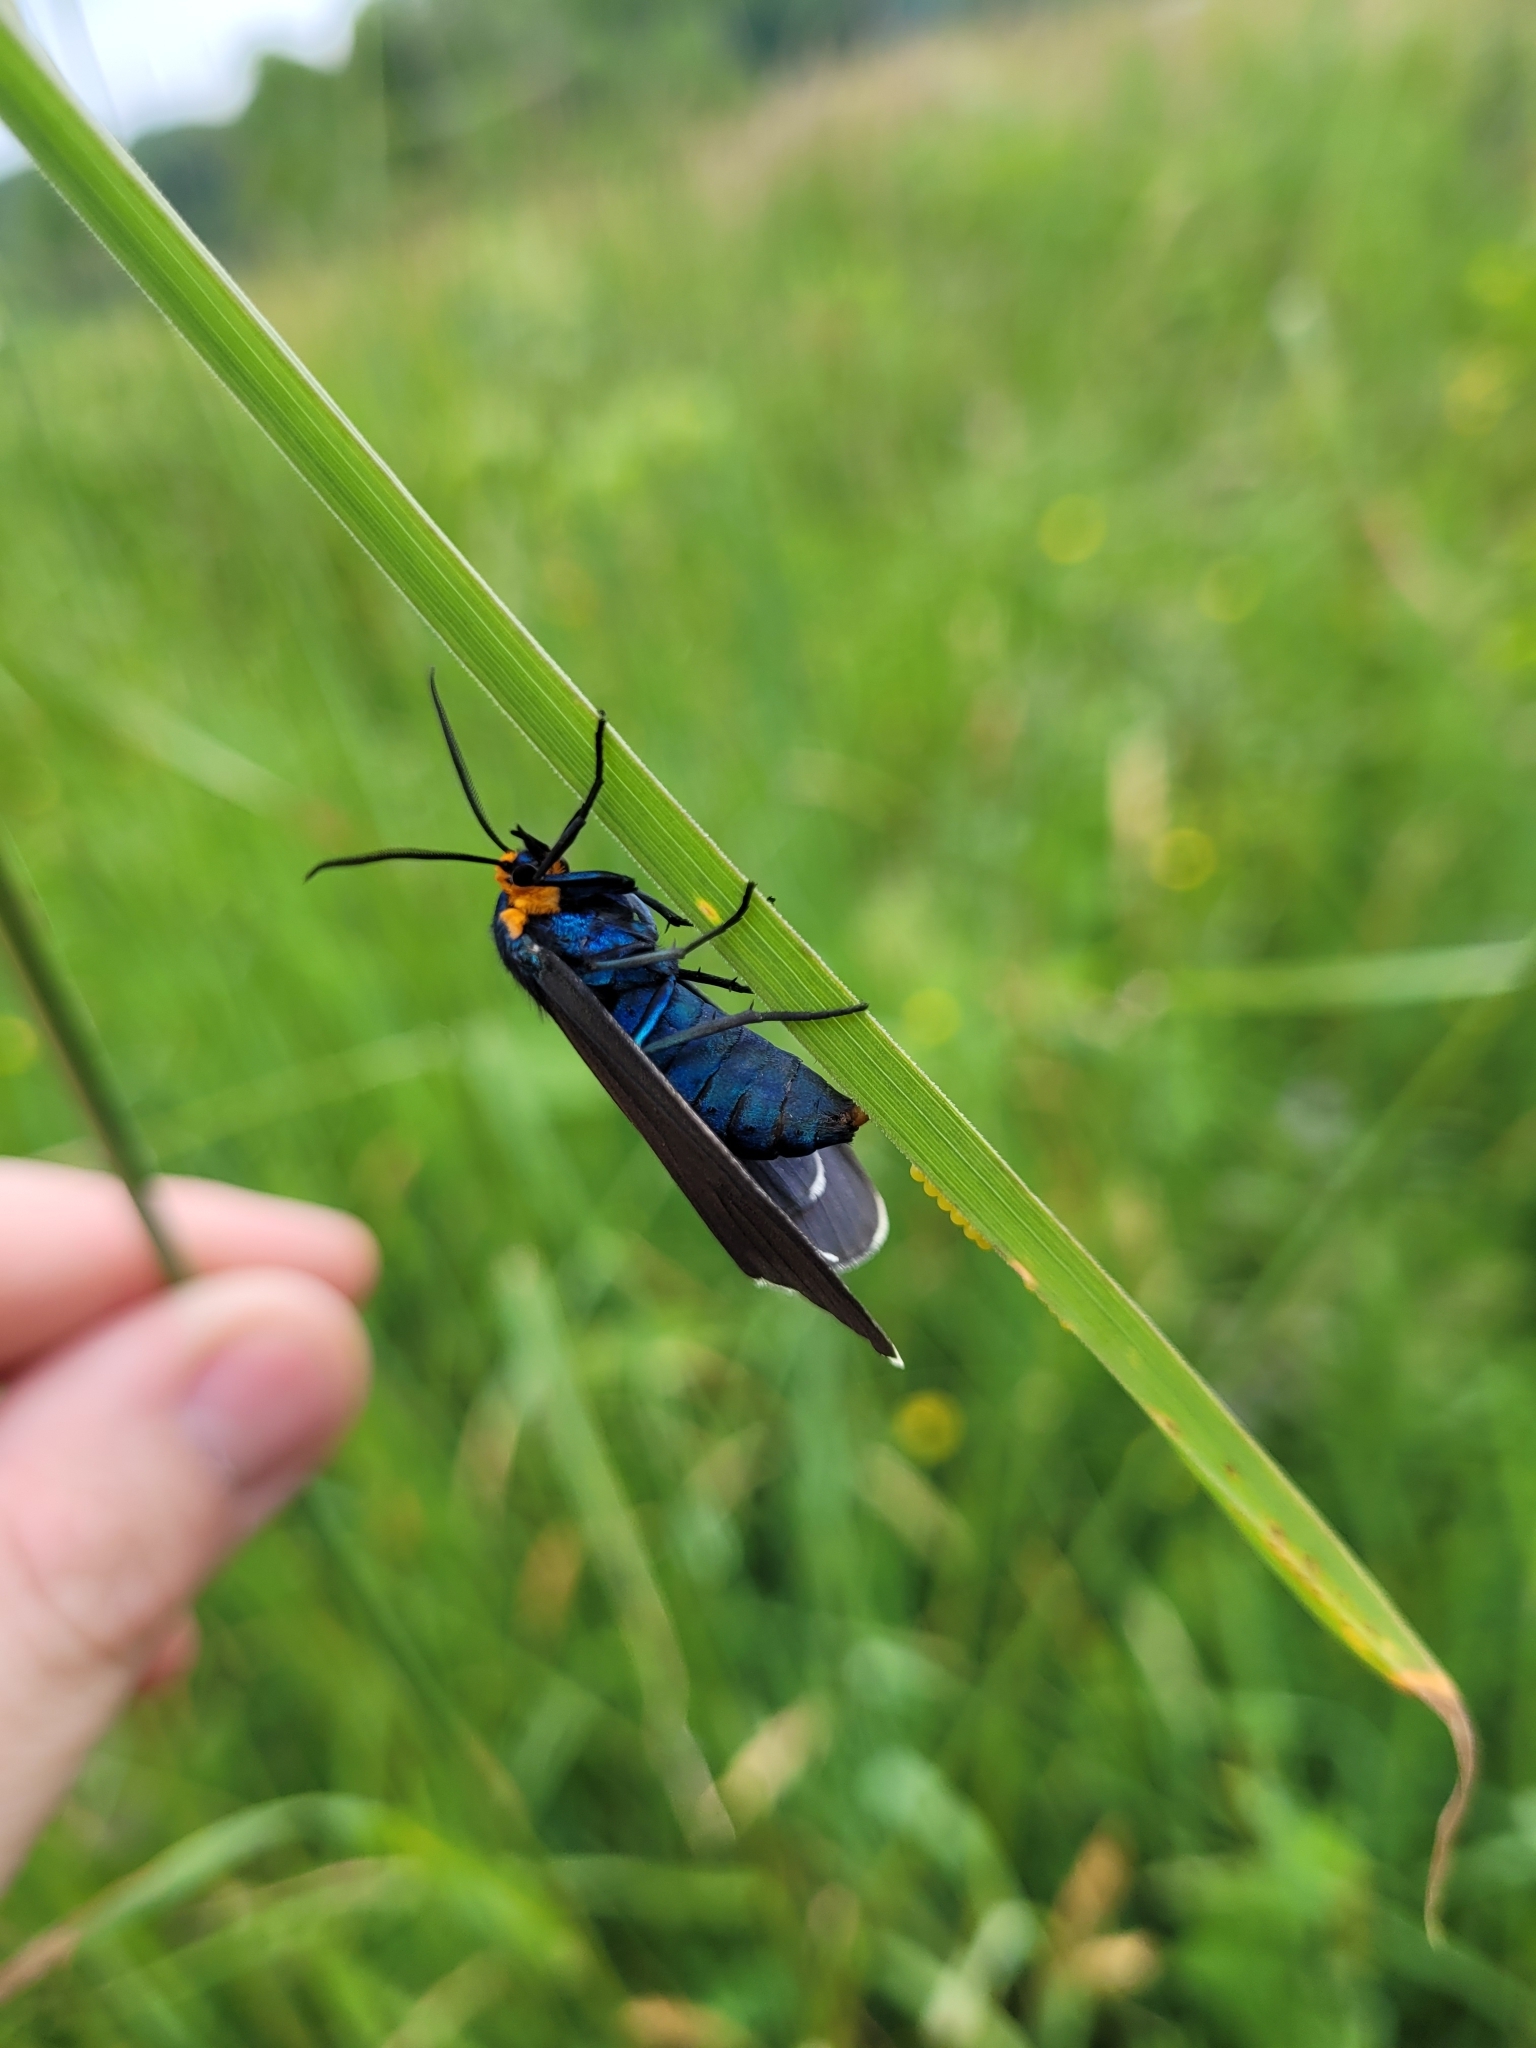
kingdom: Animalia
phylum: Arthropoda
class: Insecta
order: Lepidoptera
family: Erebidae
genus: Ctenucha
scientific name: Ctenucha virginica
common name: Virginia ctenucha moth
